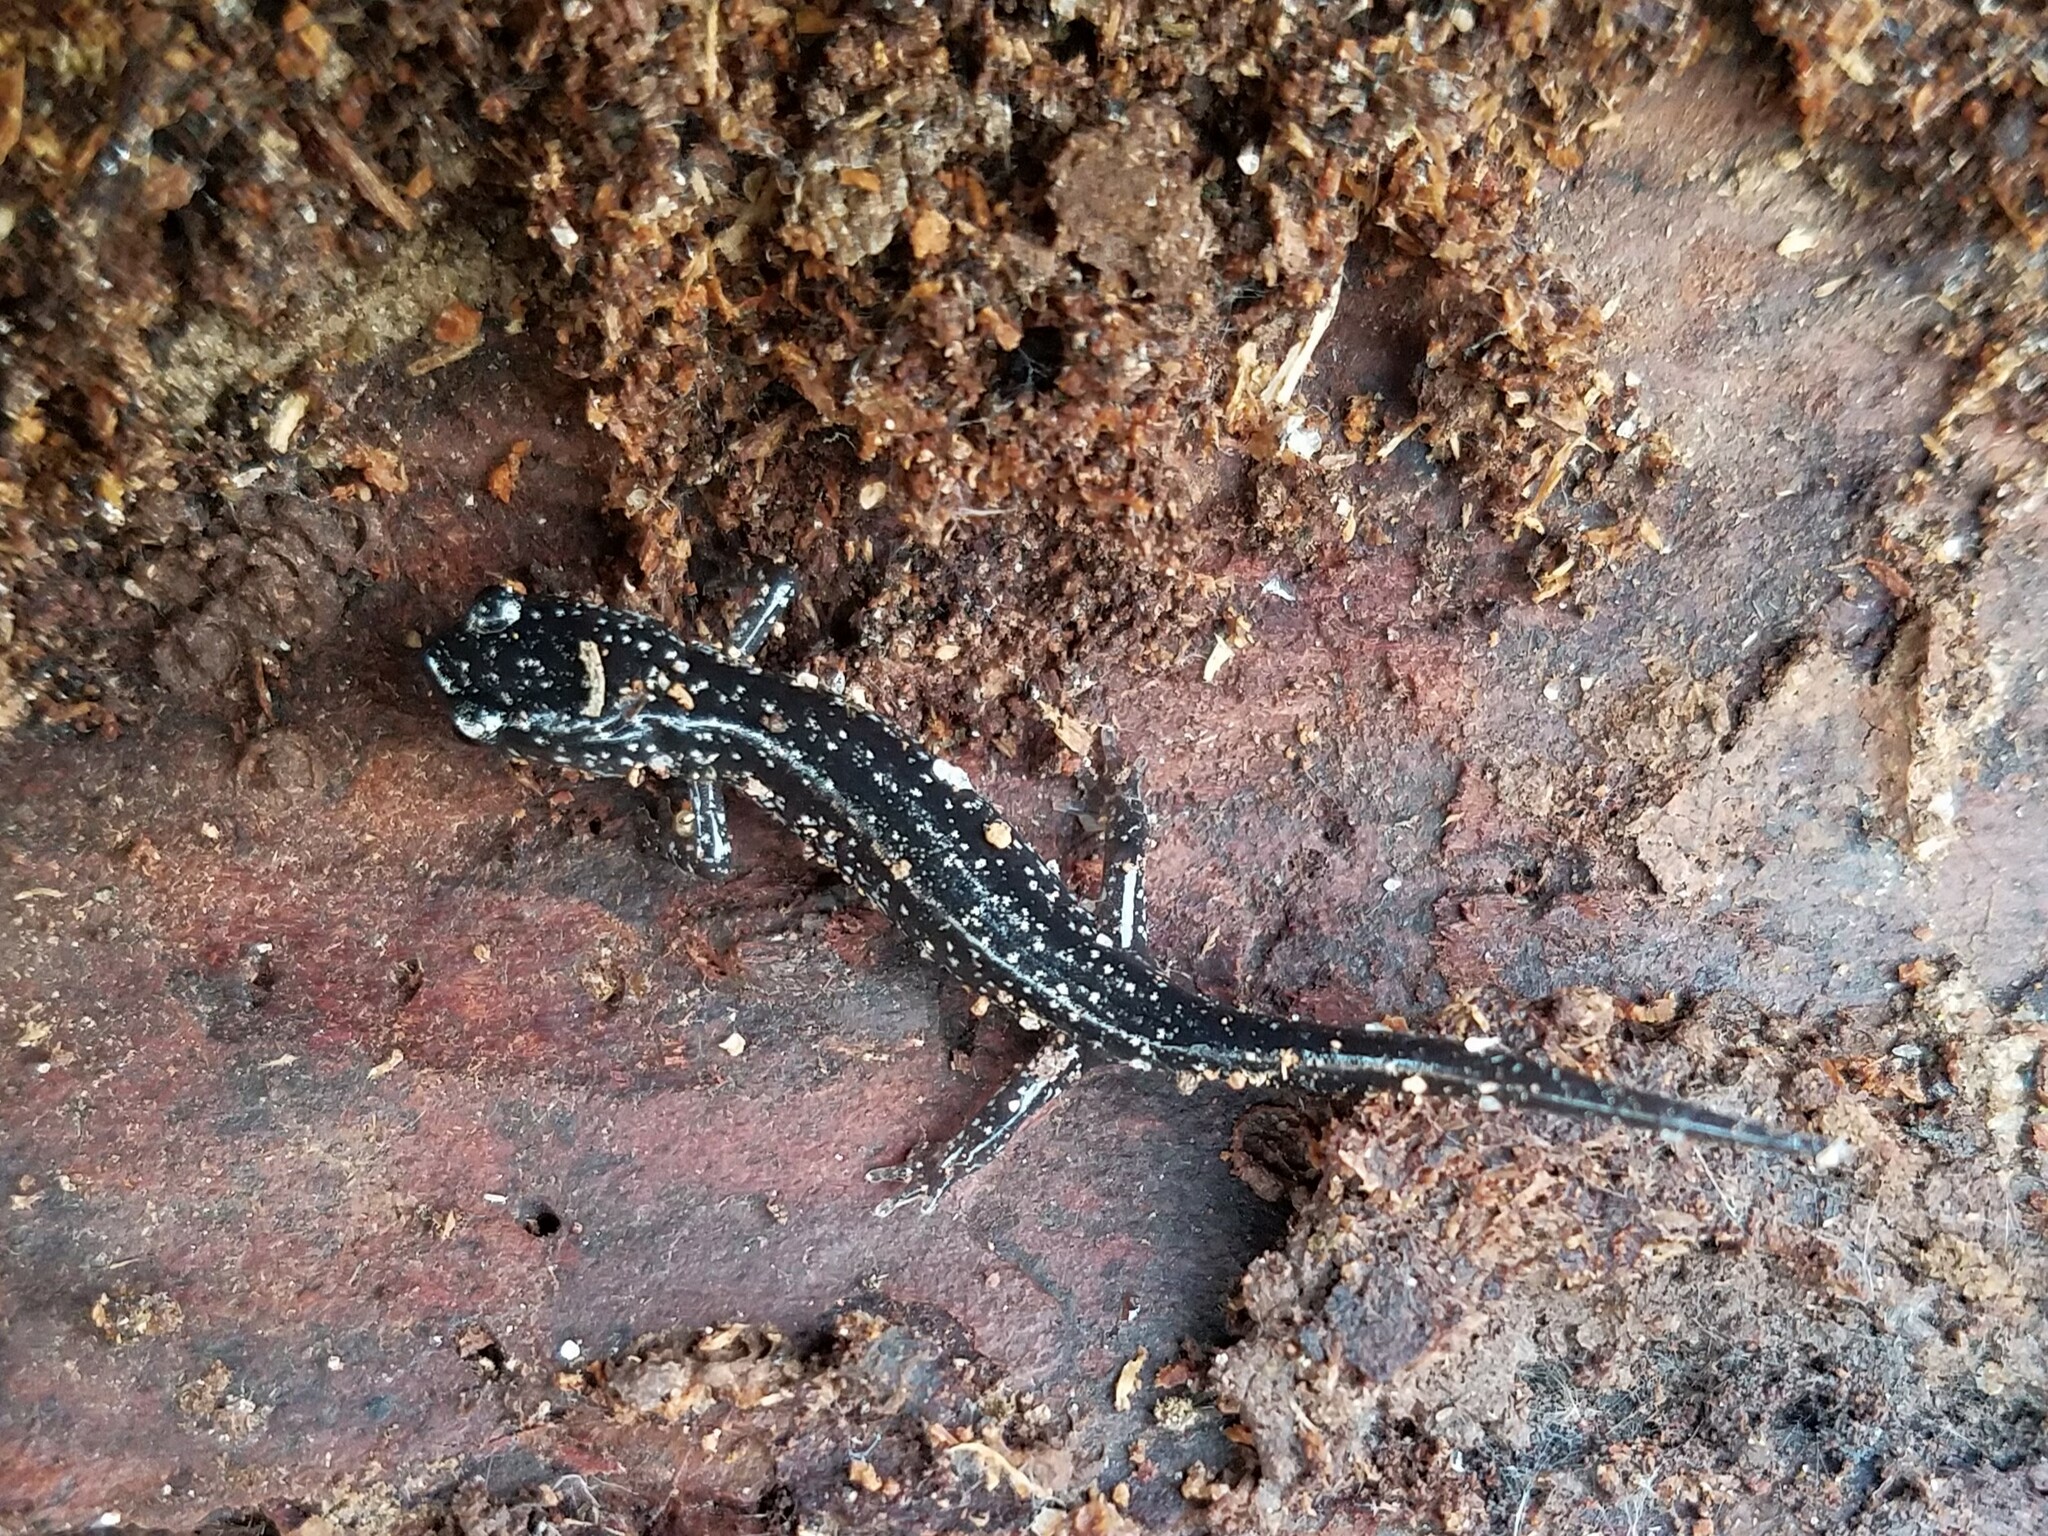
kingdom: Animalia
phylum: Chordata
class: Amphibia
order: Caudata
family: Plethodontidae
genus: Plethodon
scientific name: Plethodon glutinosus
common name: Northern slimy salamander
